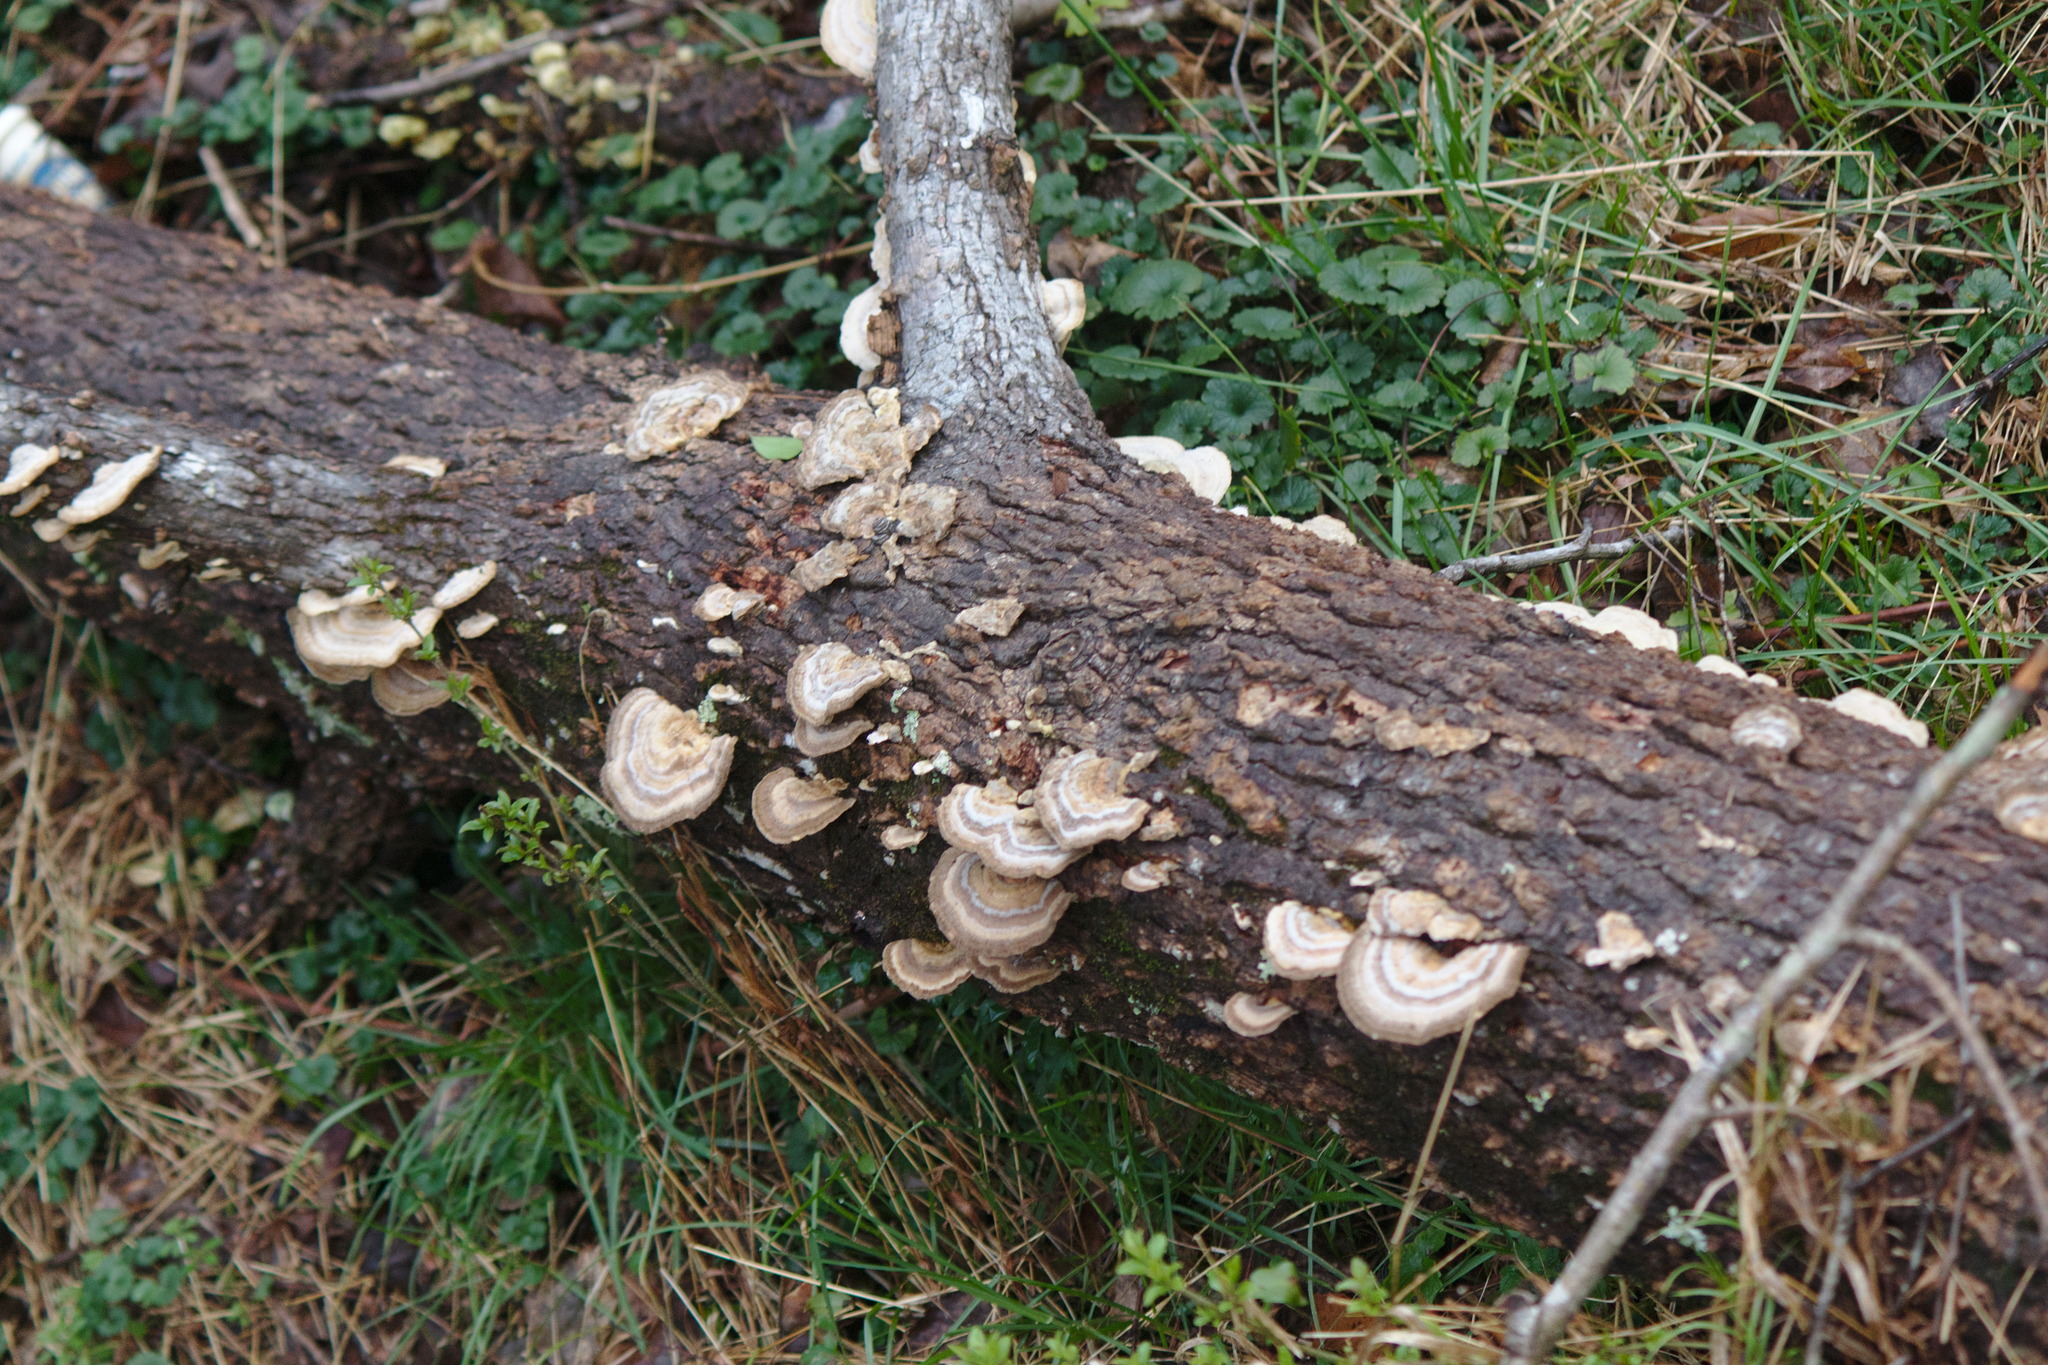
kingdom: Fungi
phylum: Basidiomycota
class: Agaricomycetes
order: Polyporales
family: Polyporaceae
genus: Trametes
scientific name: Trametes hirsuta
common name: Hairy bracket
